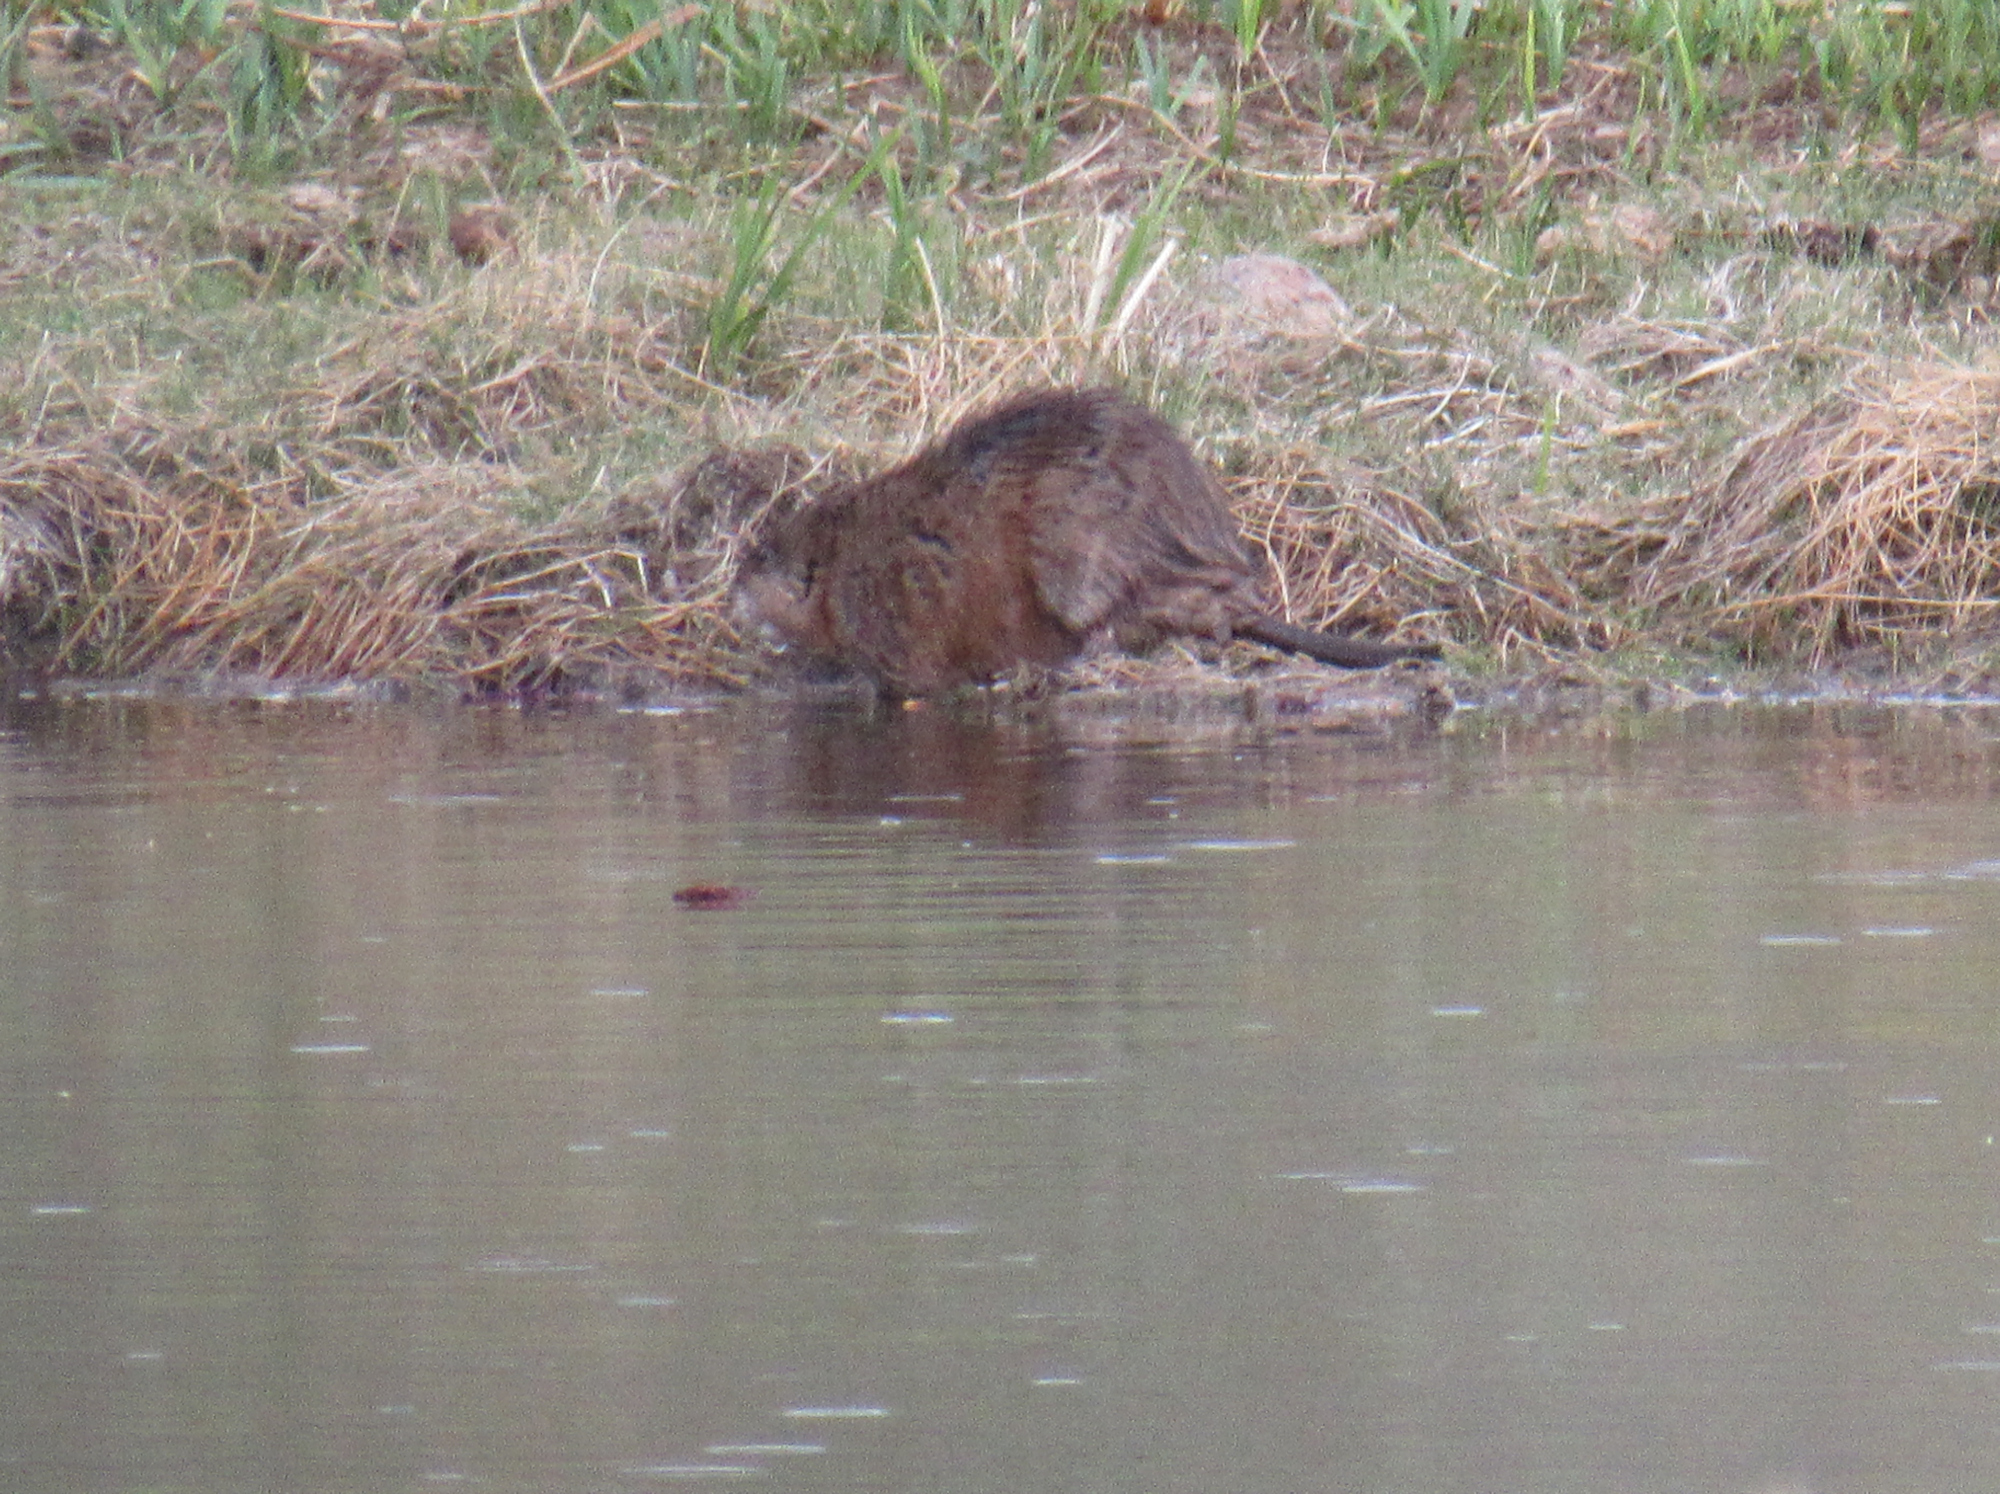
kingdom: Animalia
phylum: Chordata
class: Mammalia
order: Rodentia
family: Cricetidae
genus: Ondatra
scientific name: Ondatra zibethicus
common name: Muskrat
